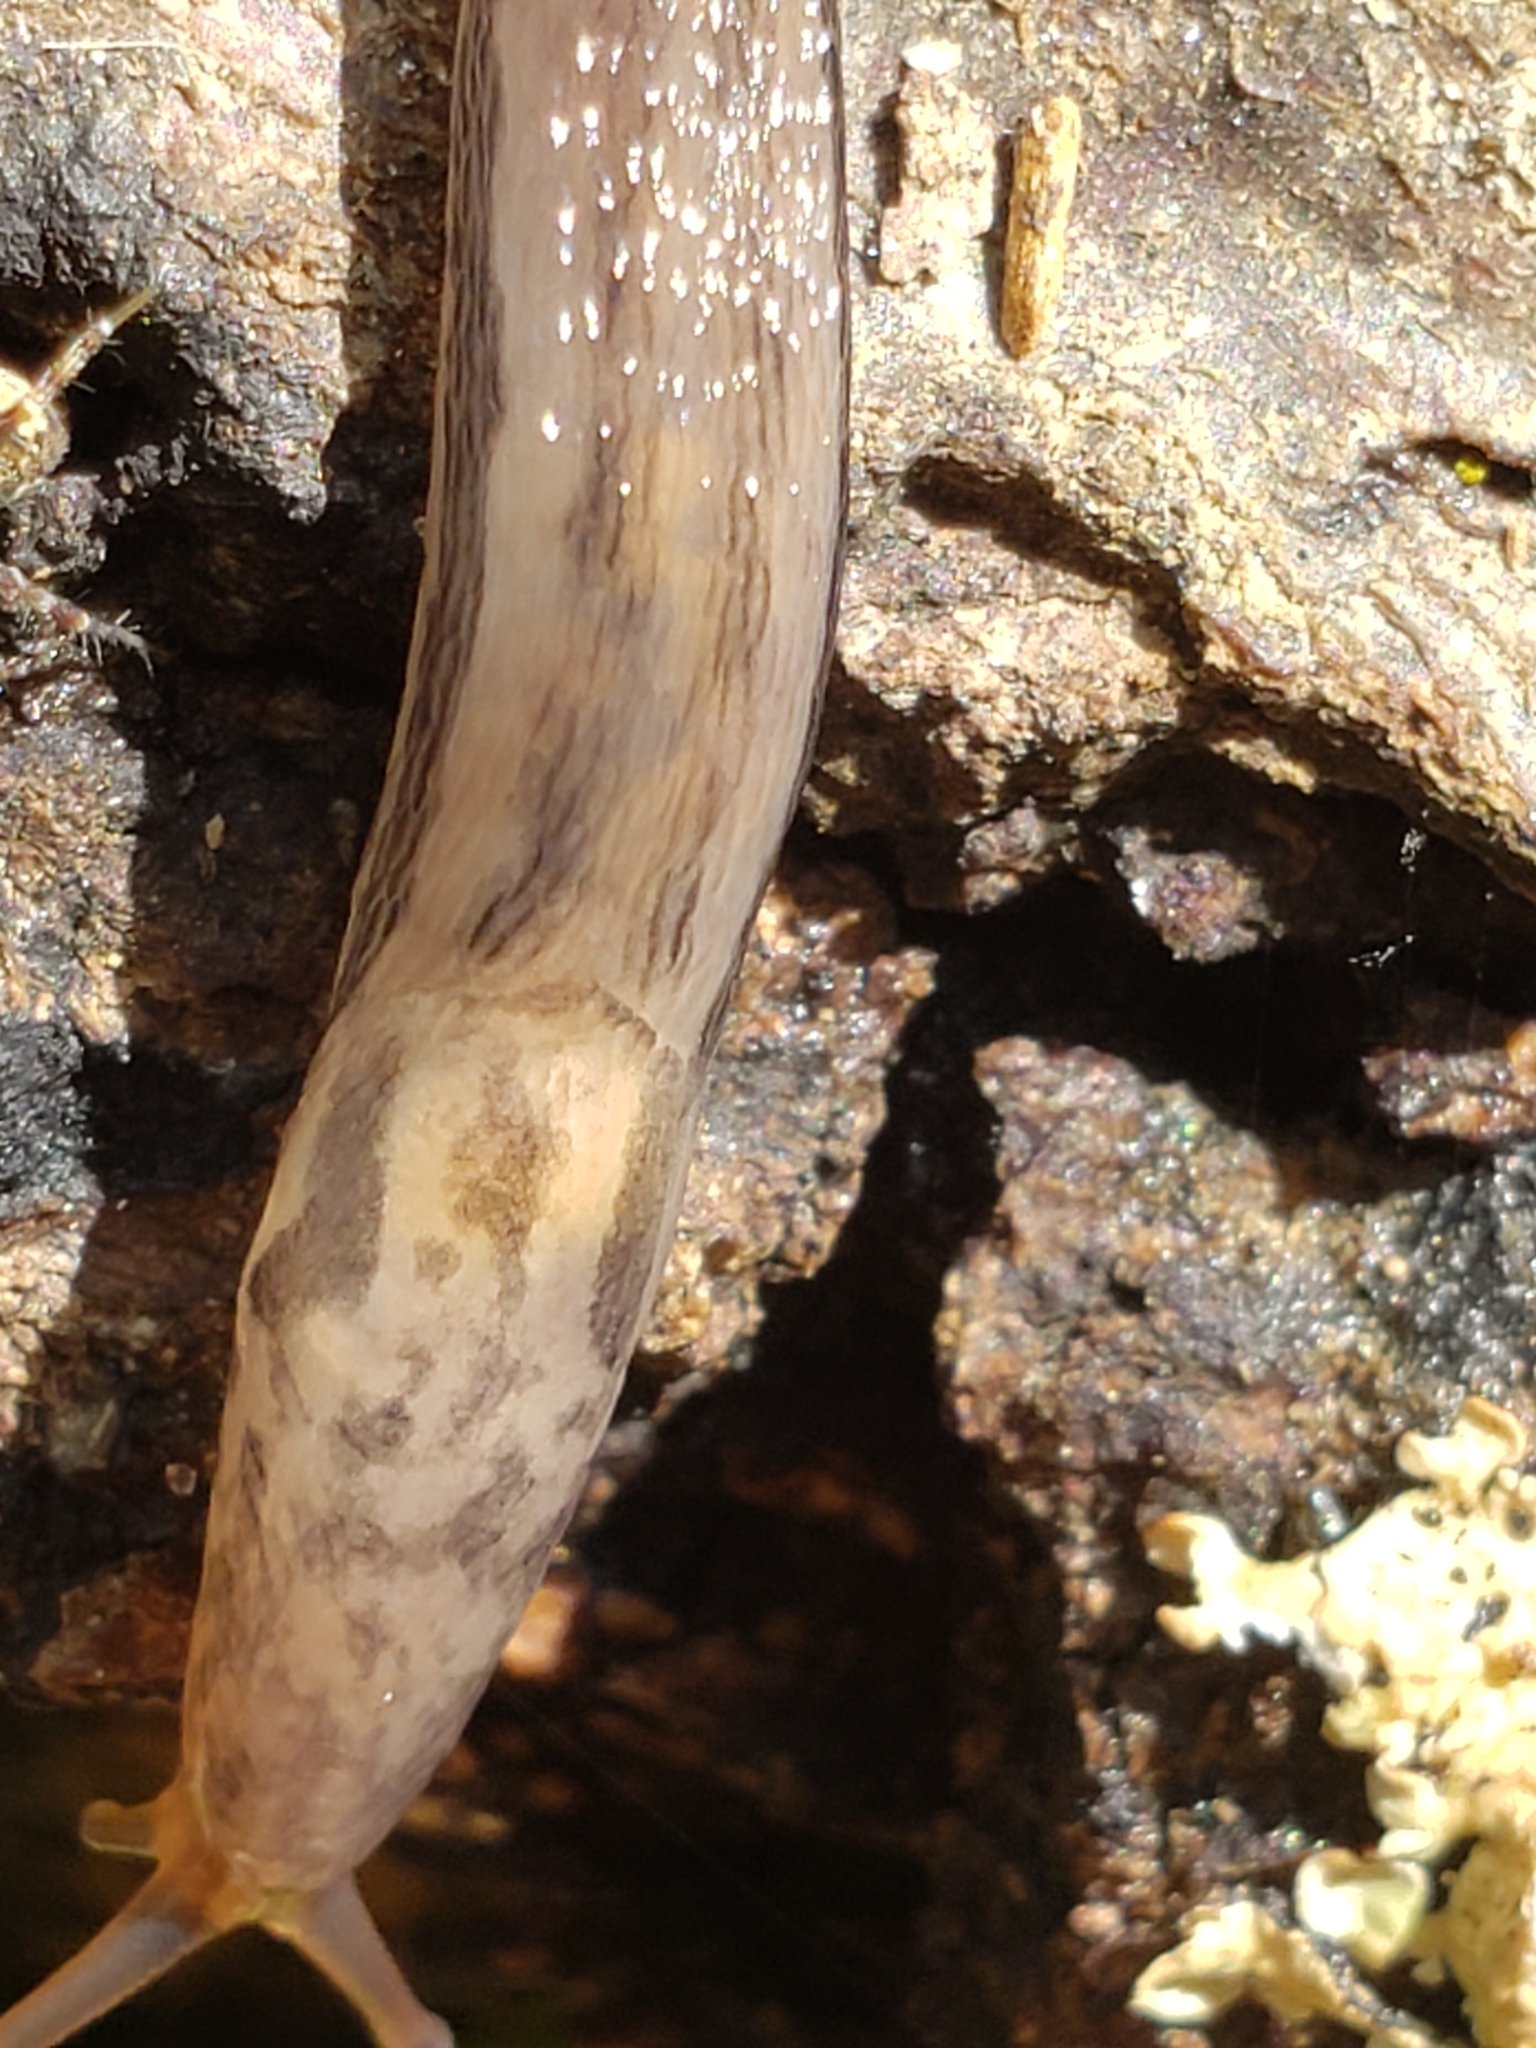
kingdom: Animalia
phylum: Mollusca
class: Gastropoda
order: Stylommatophora
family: Limacidae
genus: Limax
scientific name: Limax maximus
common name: Great grey slug
